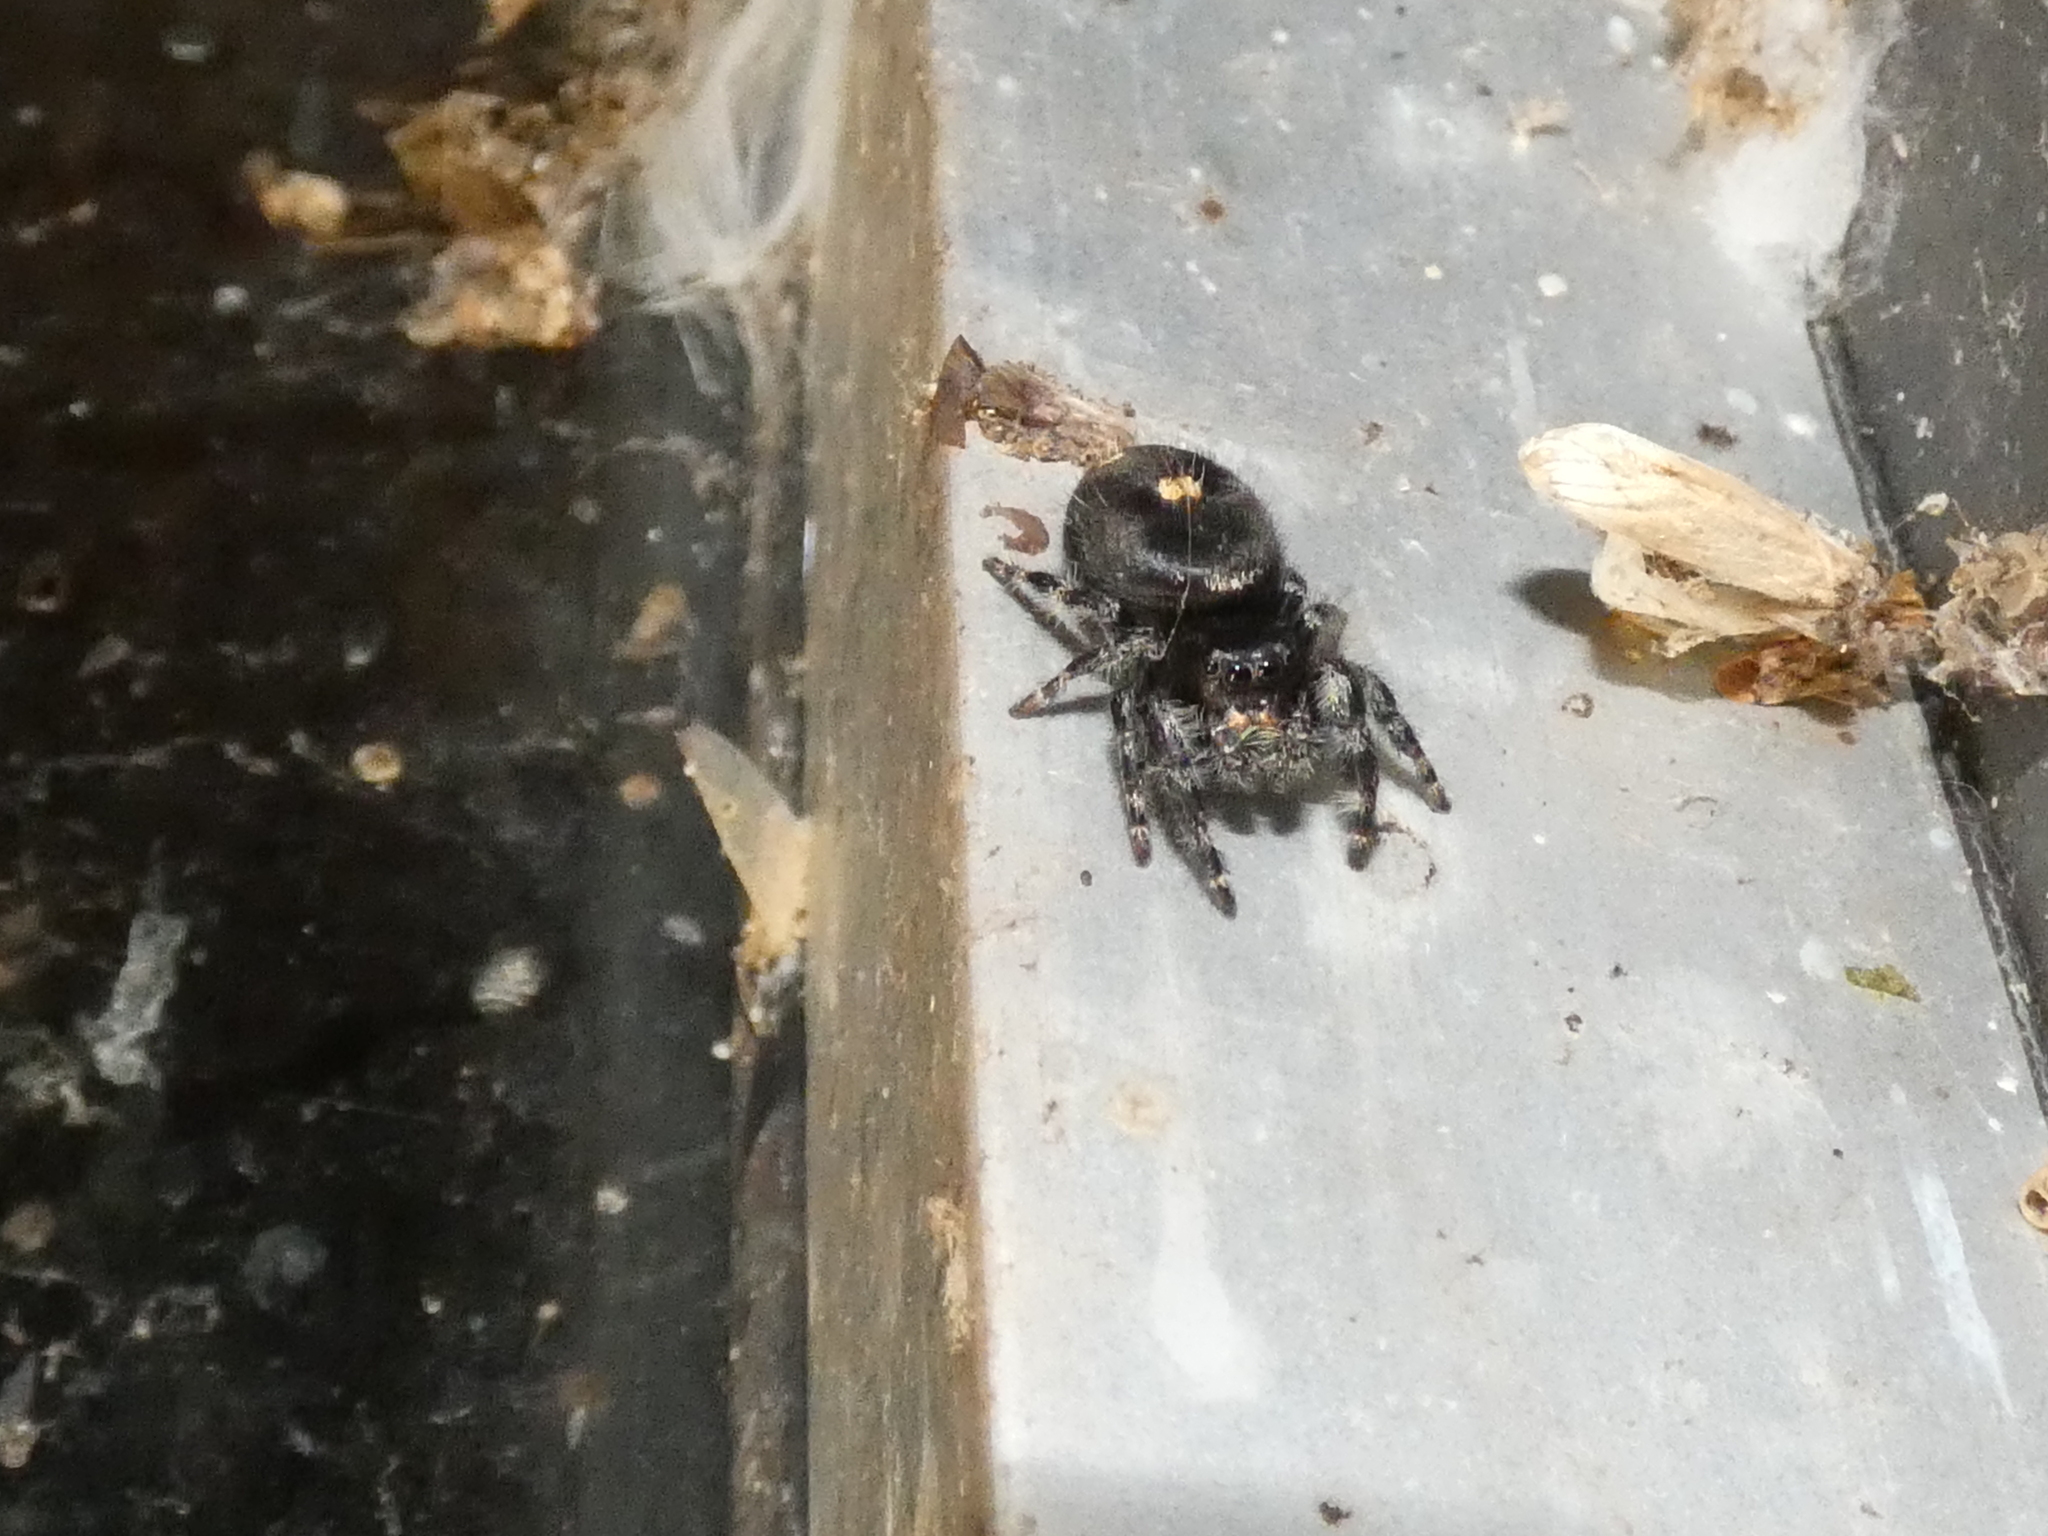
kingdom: Animalia
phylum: Arthropoda
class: Arachnida
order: Araneae
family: Salticidae
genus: Phidippus
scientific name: Phidippus audax
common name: Bold jumper
